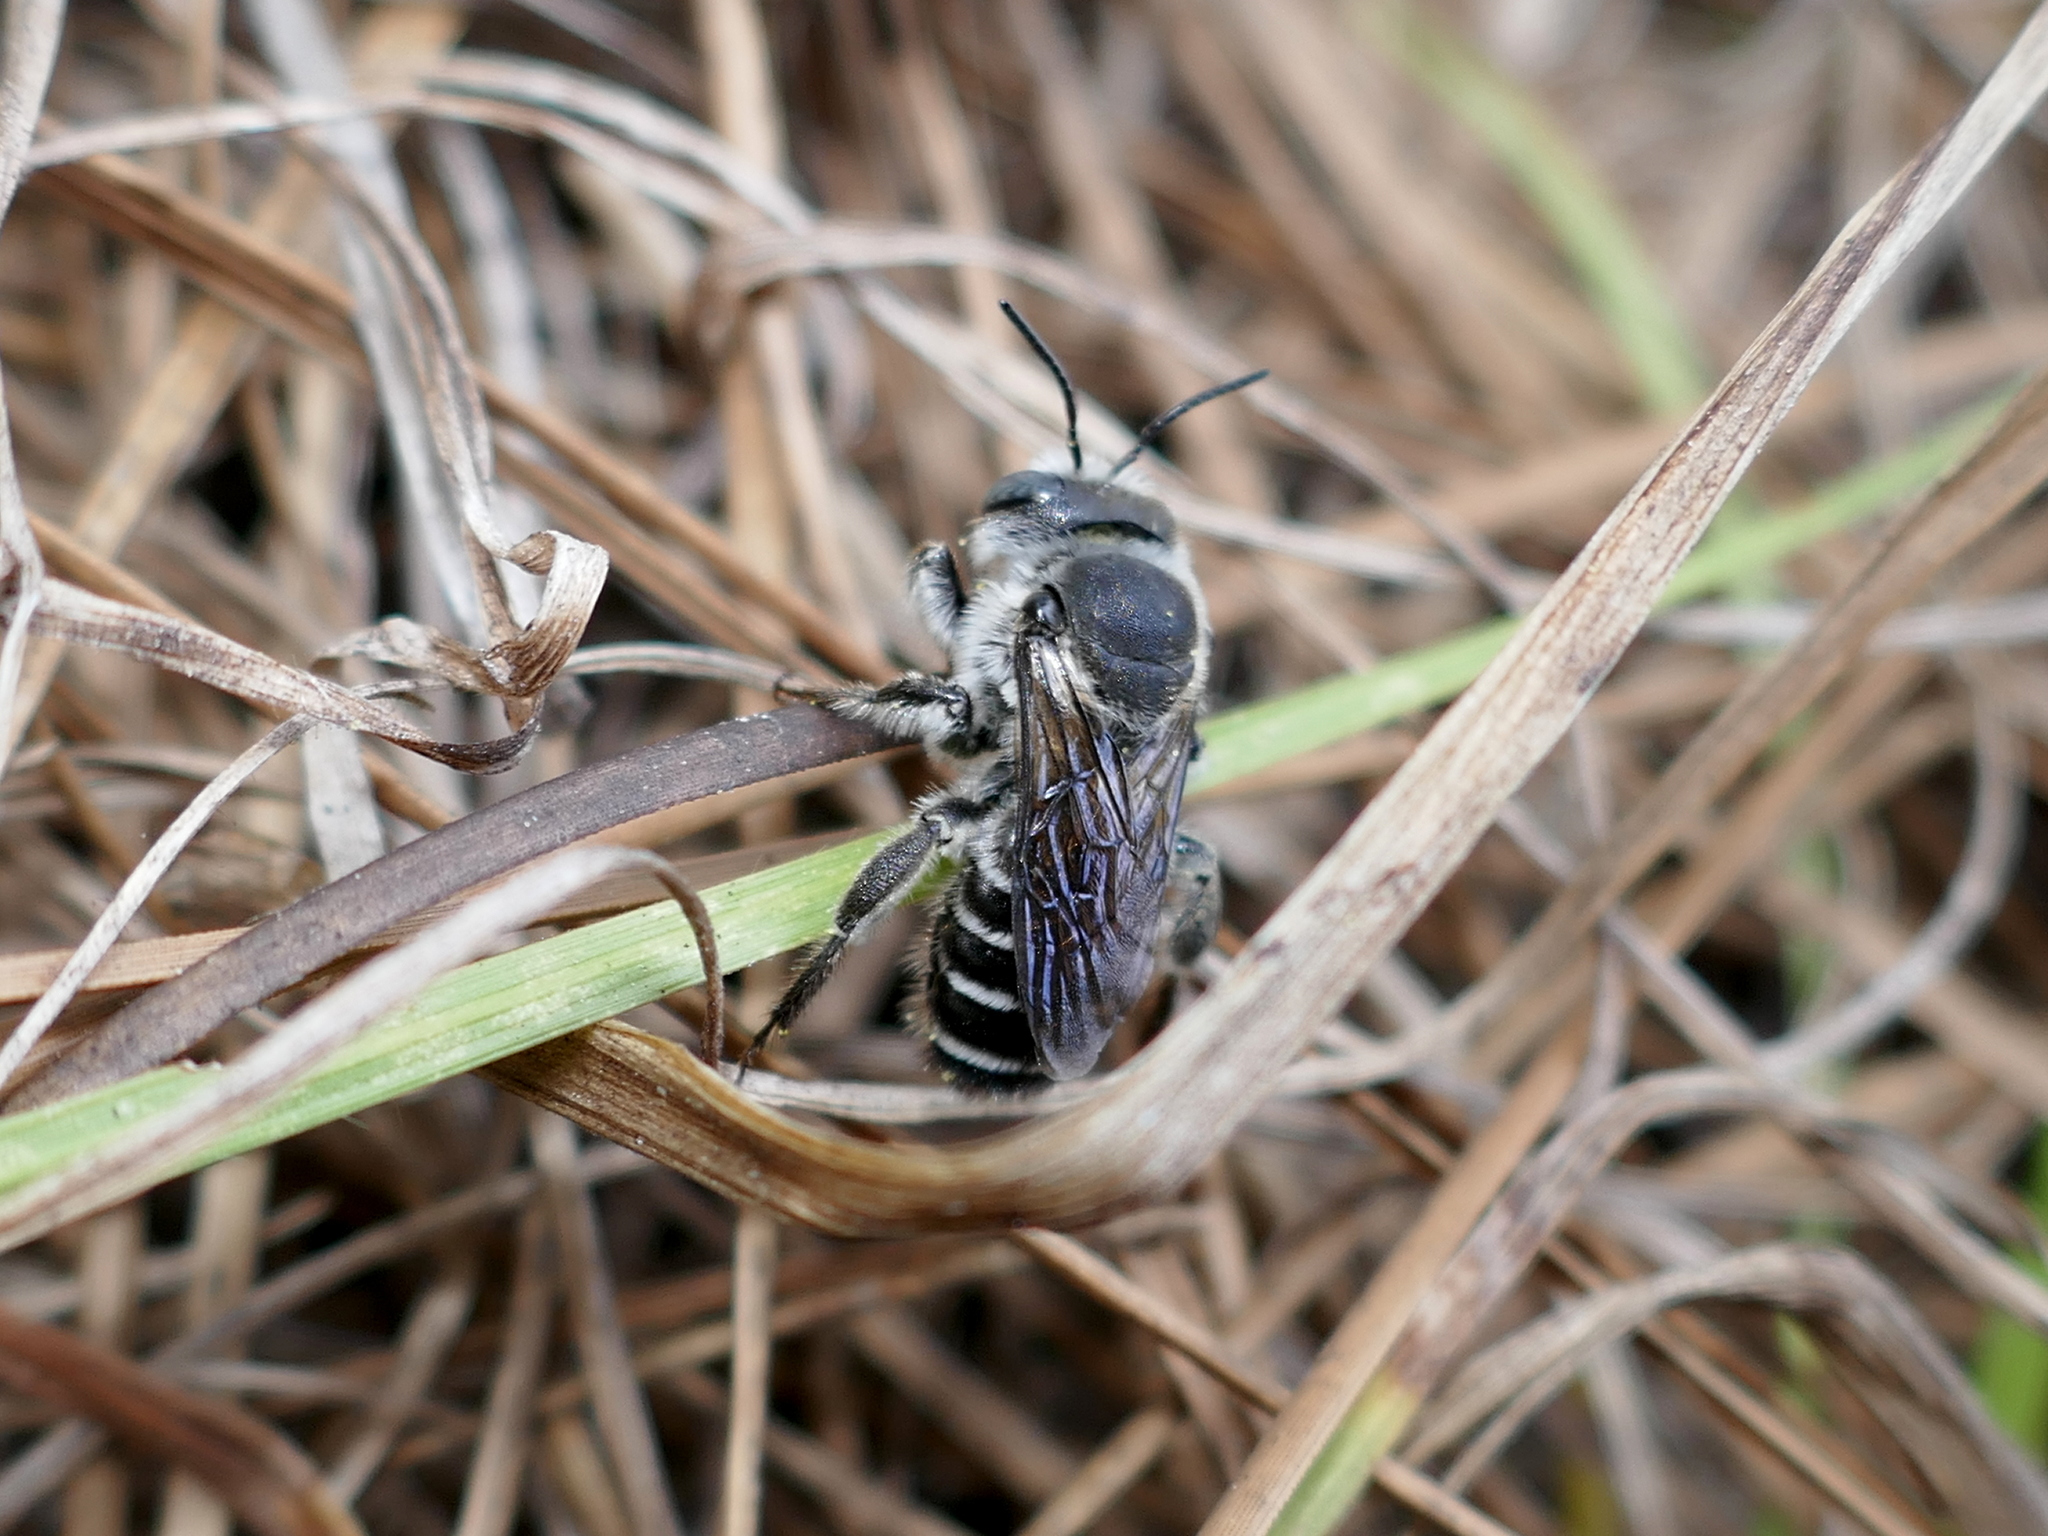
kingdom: Animalia
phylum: Arthropoda
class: Insecta
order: Hymenoptera
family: Megachilidae
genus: Lithurgopsis
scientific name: Lithurgopsis gibbosa
